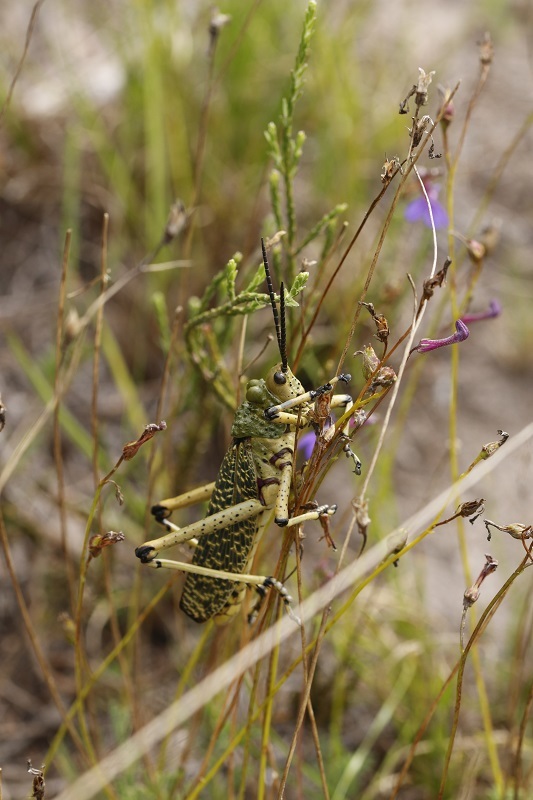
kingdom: Animalia
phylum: Arthropoda
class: Insecta
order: Orthoptera
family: Pyrgomorphidae
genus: Phymateus
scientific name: Phymateus leprosus
